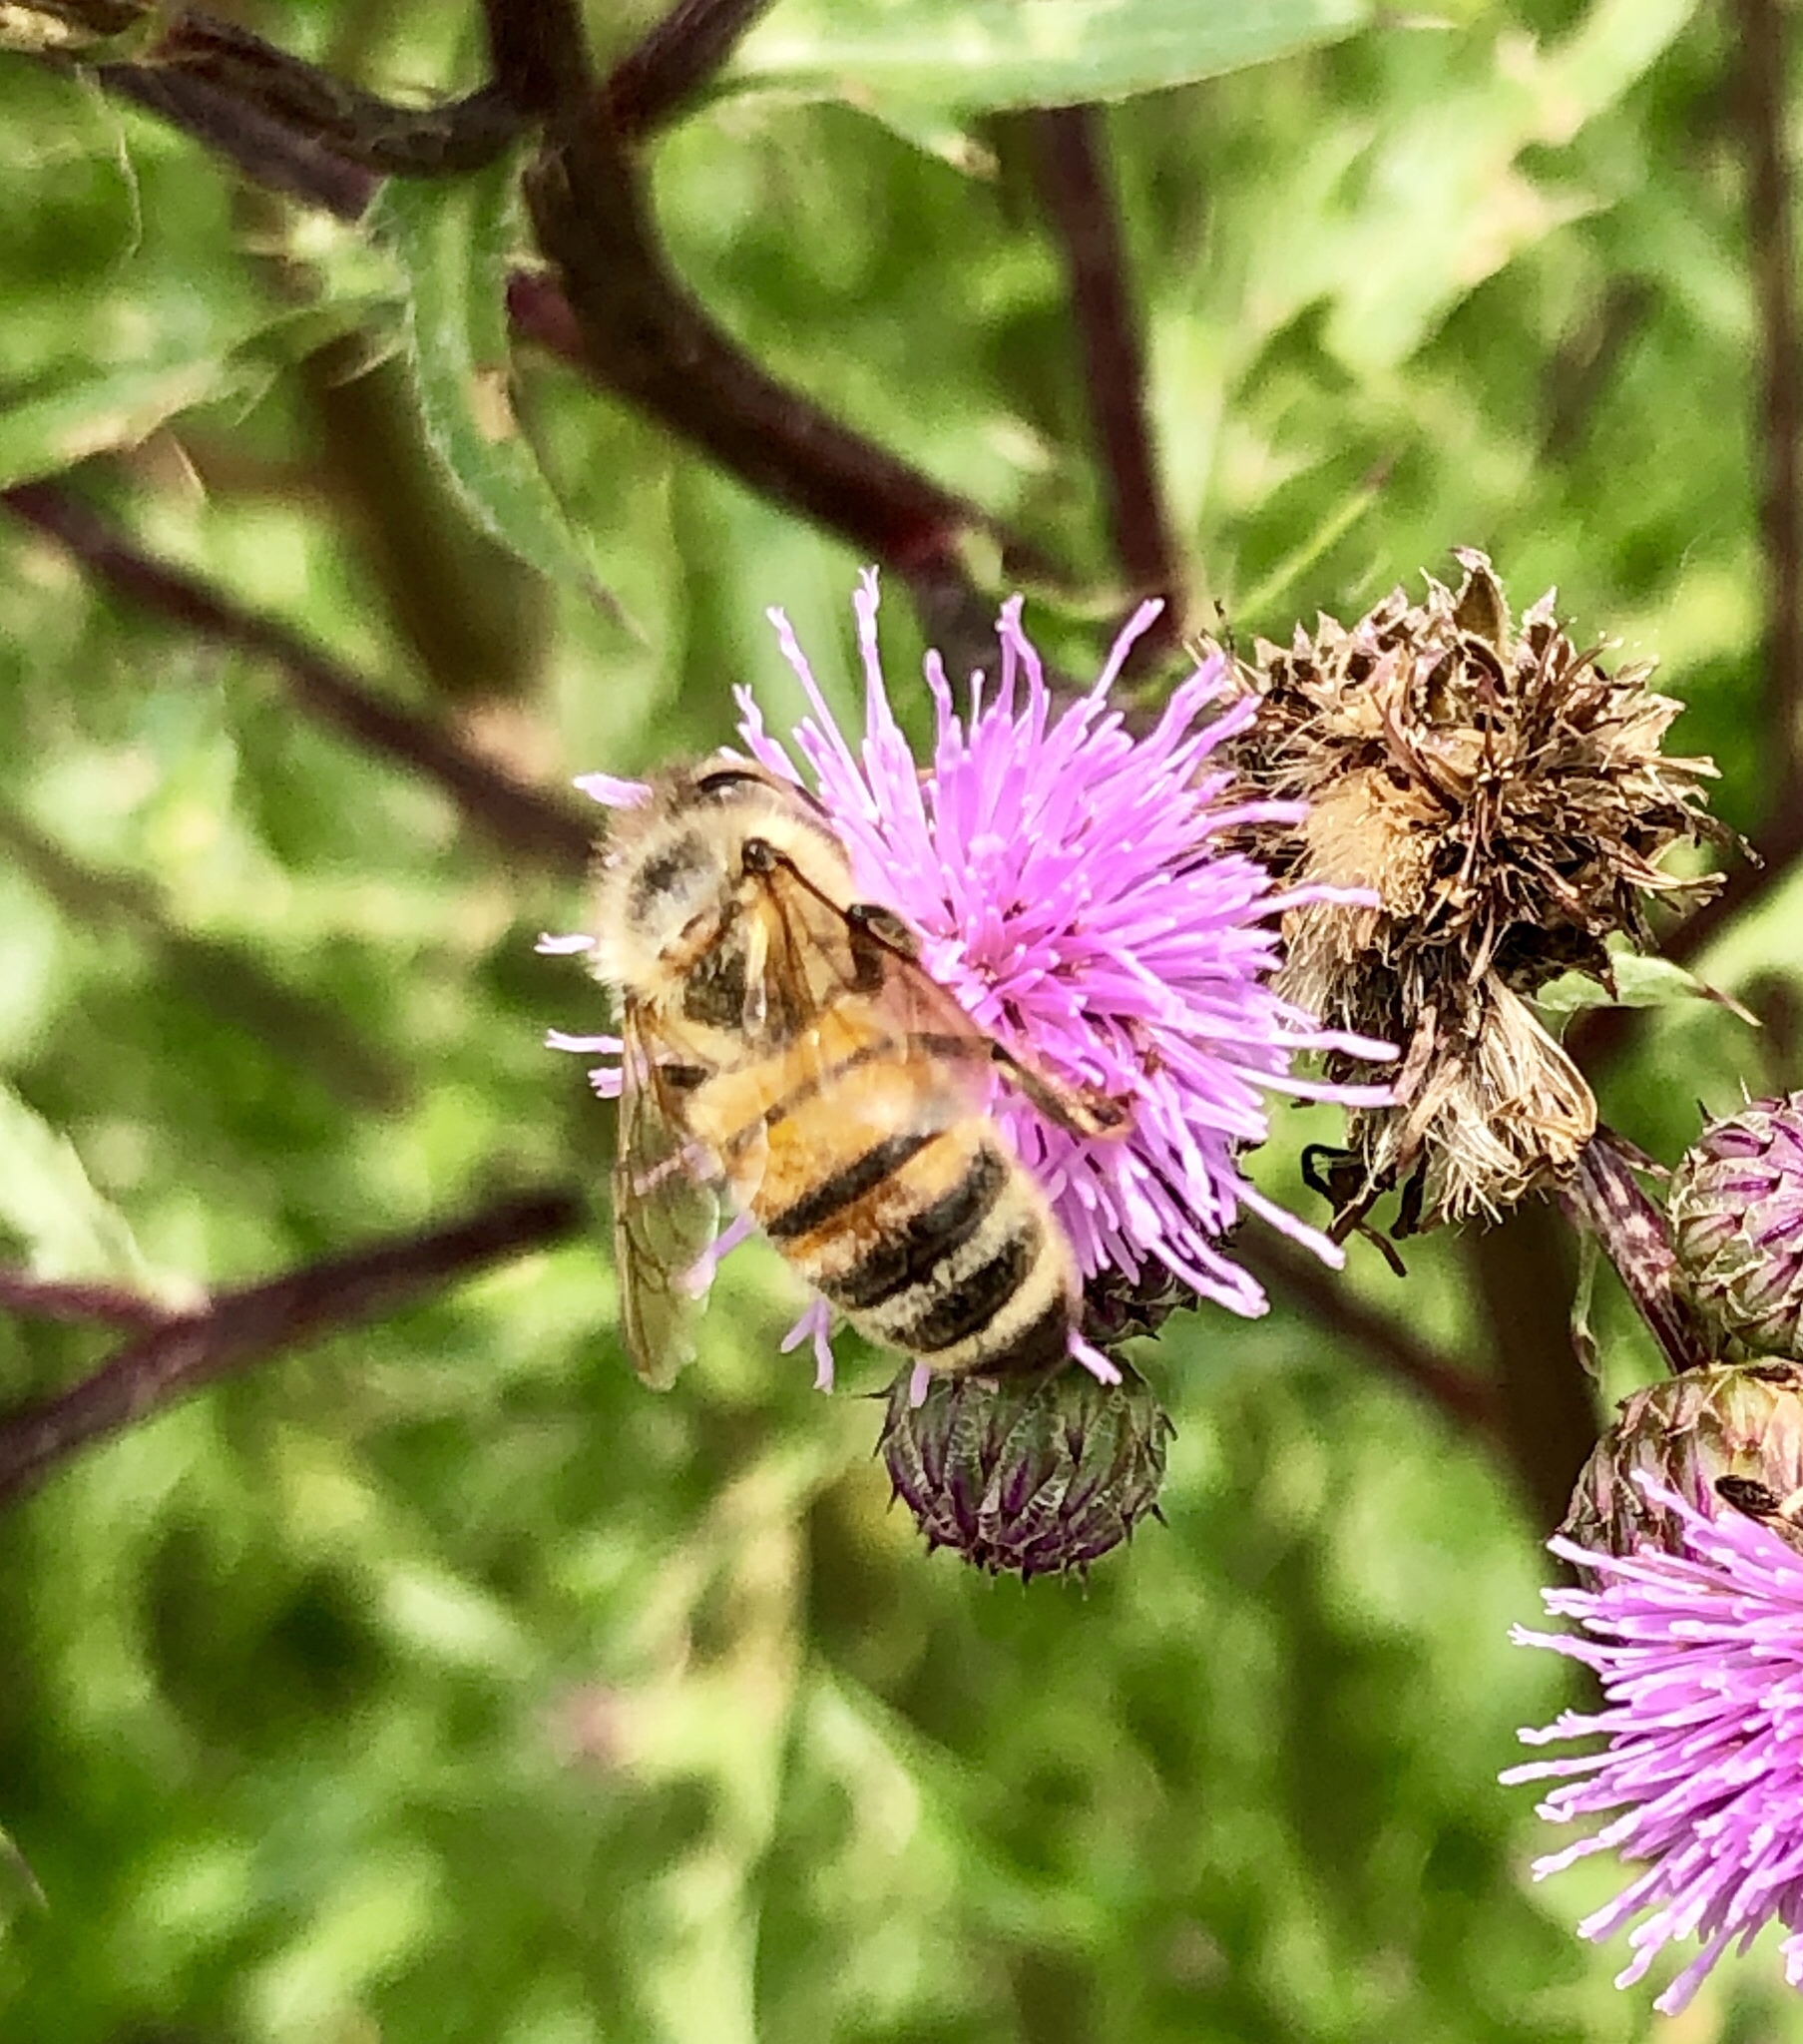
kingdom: Animalia
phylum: Arthropoda
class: Insecta
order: Hymenoptera
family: Apidae
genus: Apis
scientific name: Apis mellifera
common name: Honey bee
